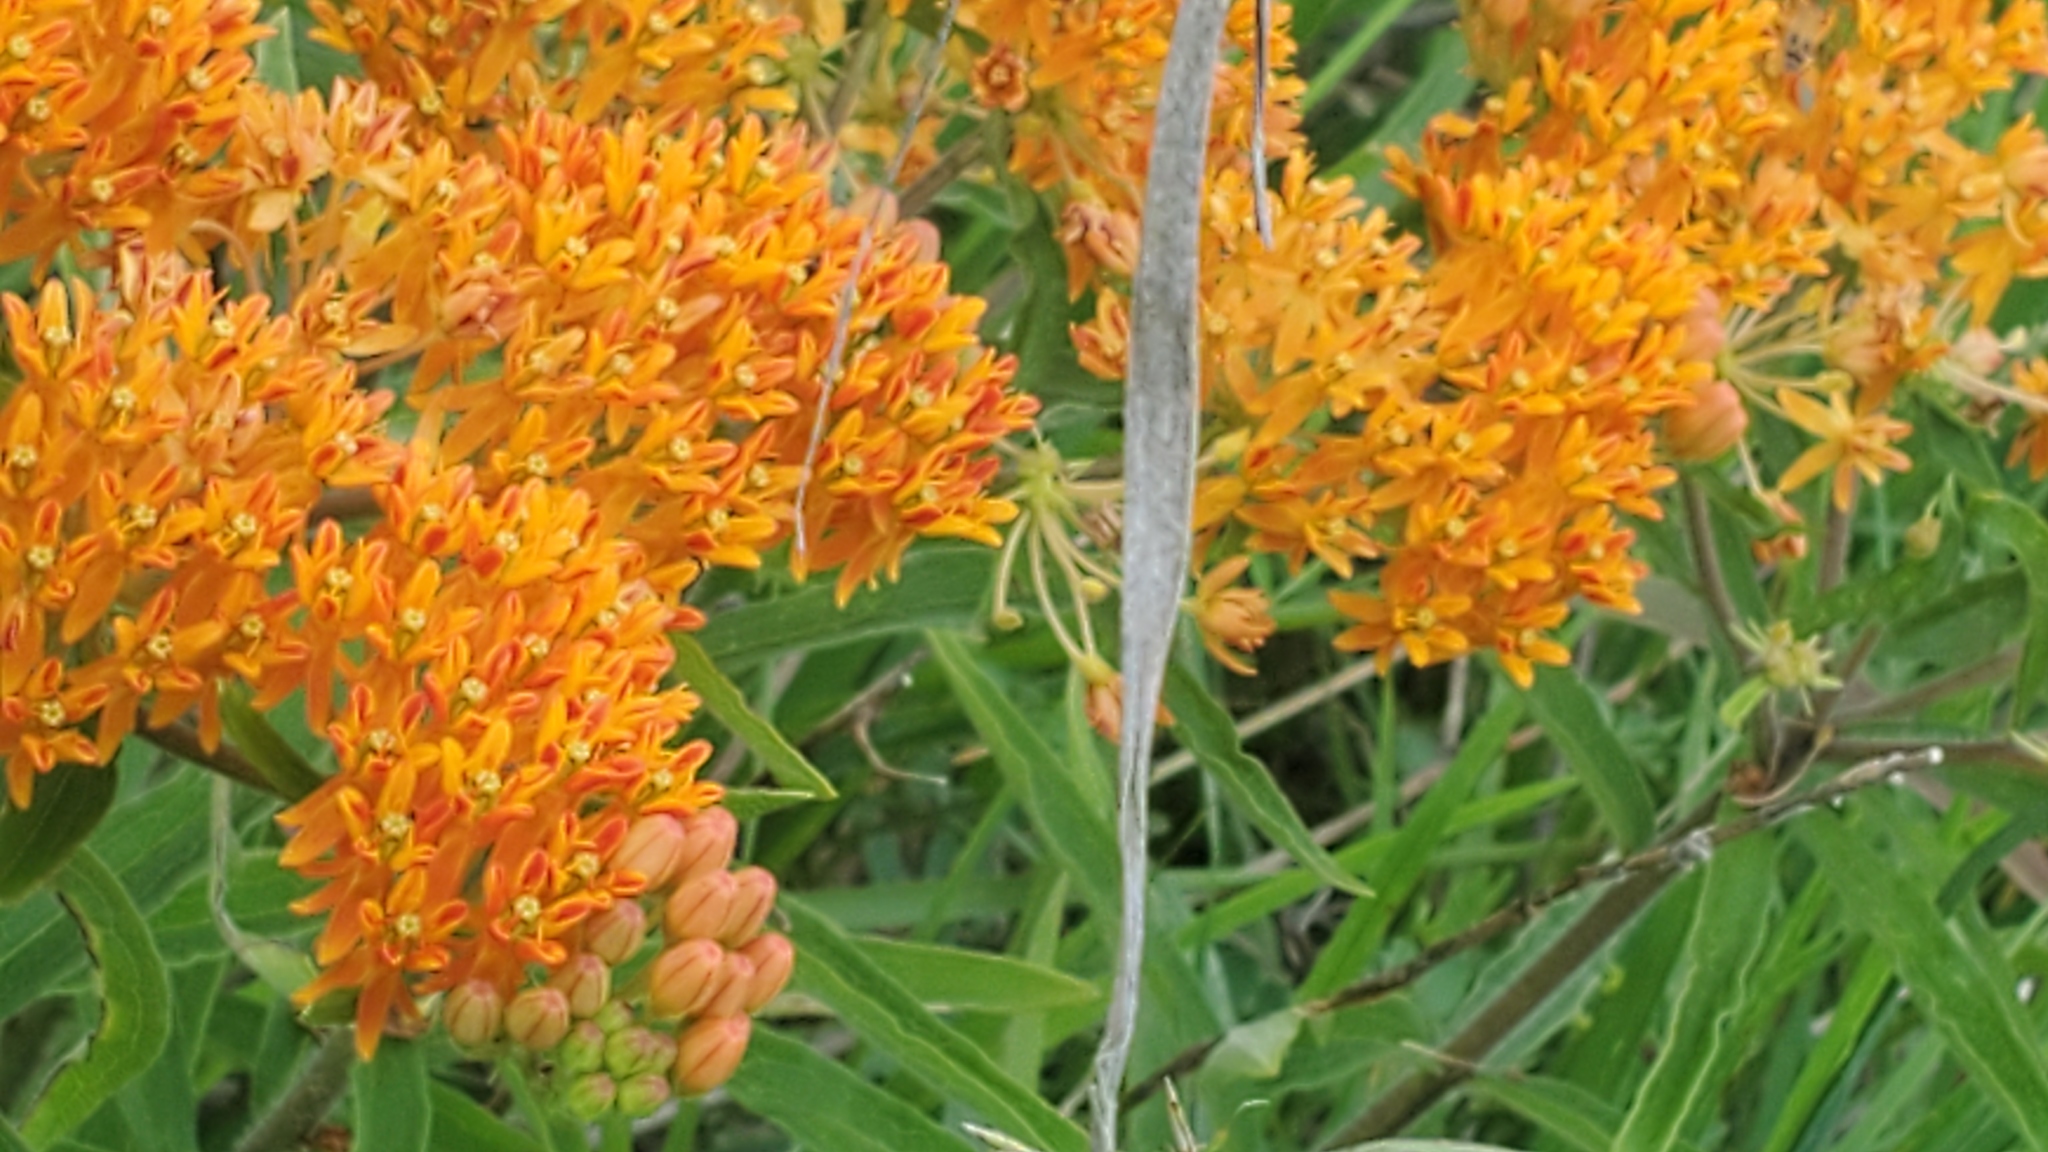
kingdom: Plantae
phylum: Tracheophyta
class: Magnoliopsida
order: Gentianales
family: Apocynaceae
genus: Asclepias
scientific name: Asclepias tuberosa
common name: Butterfly milkweed
